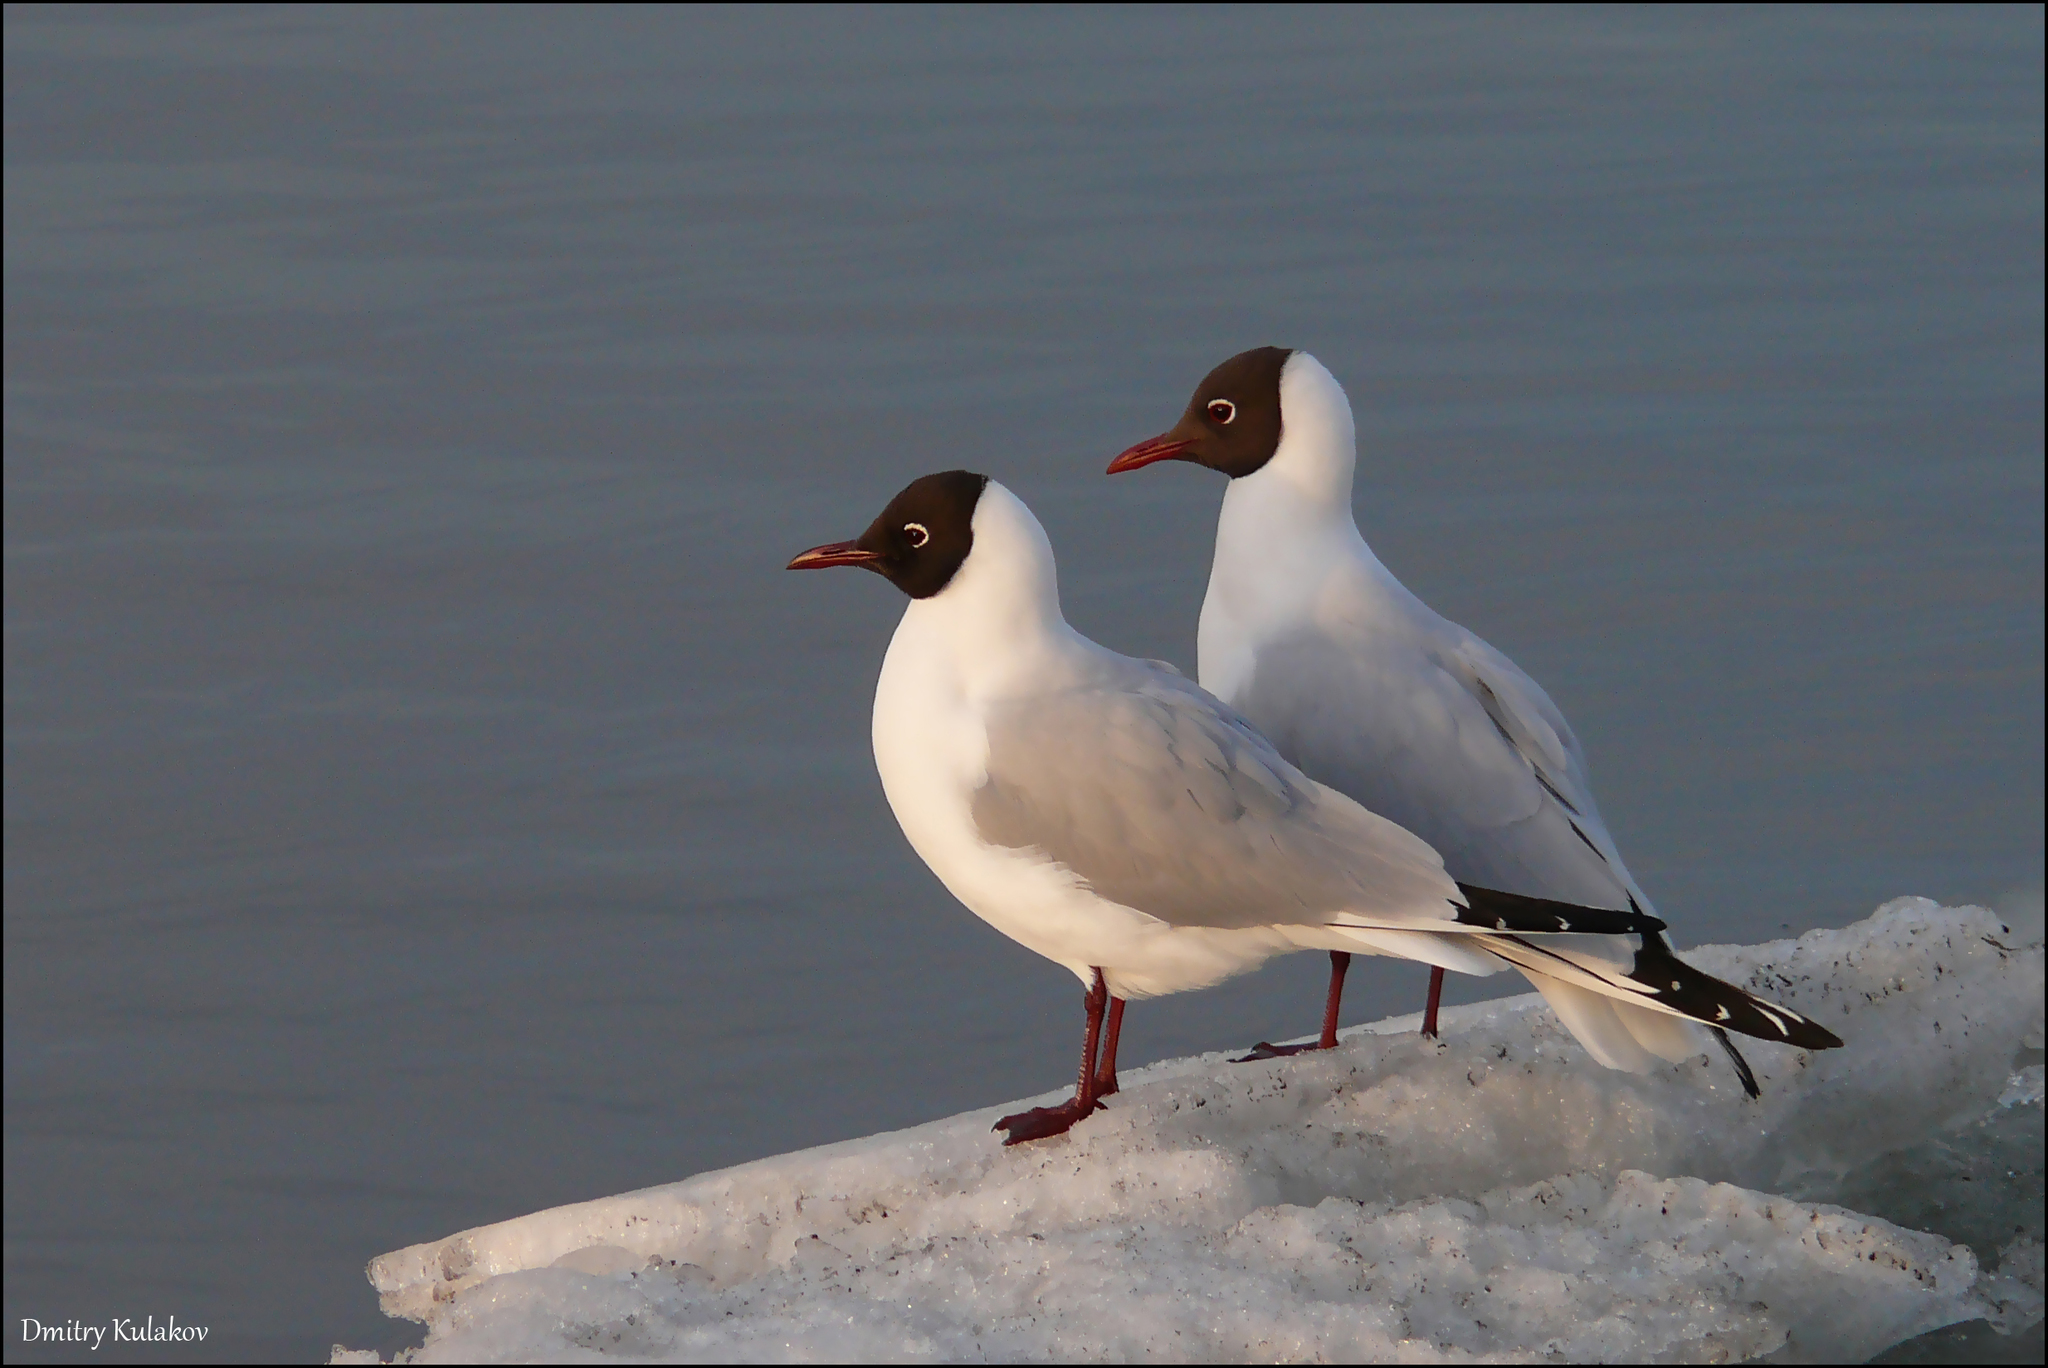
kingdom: Animalia
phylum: Chordata
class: Aves
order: Charadriiformes
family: Laridae
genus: Chroicocephalus
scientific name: Chroicocephalus ridibundus
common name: Black-headed gull
